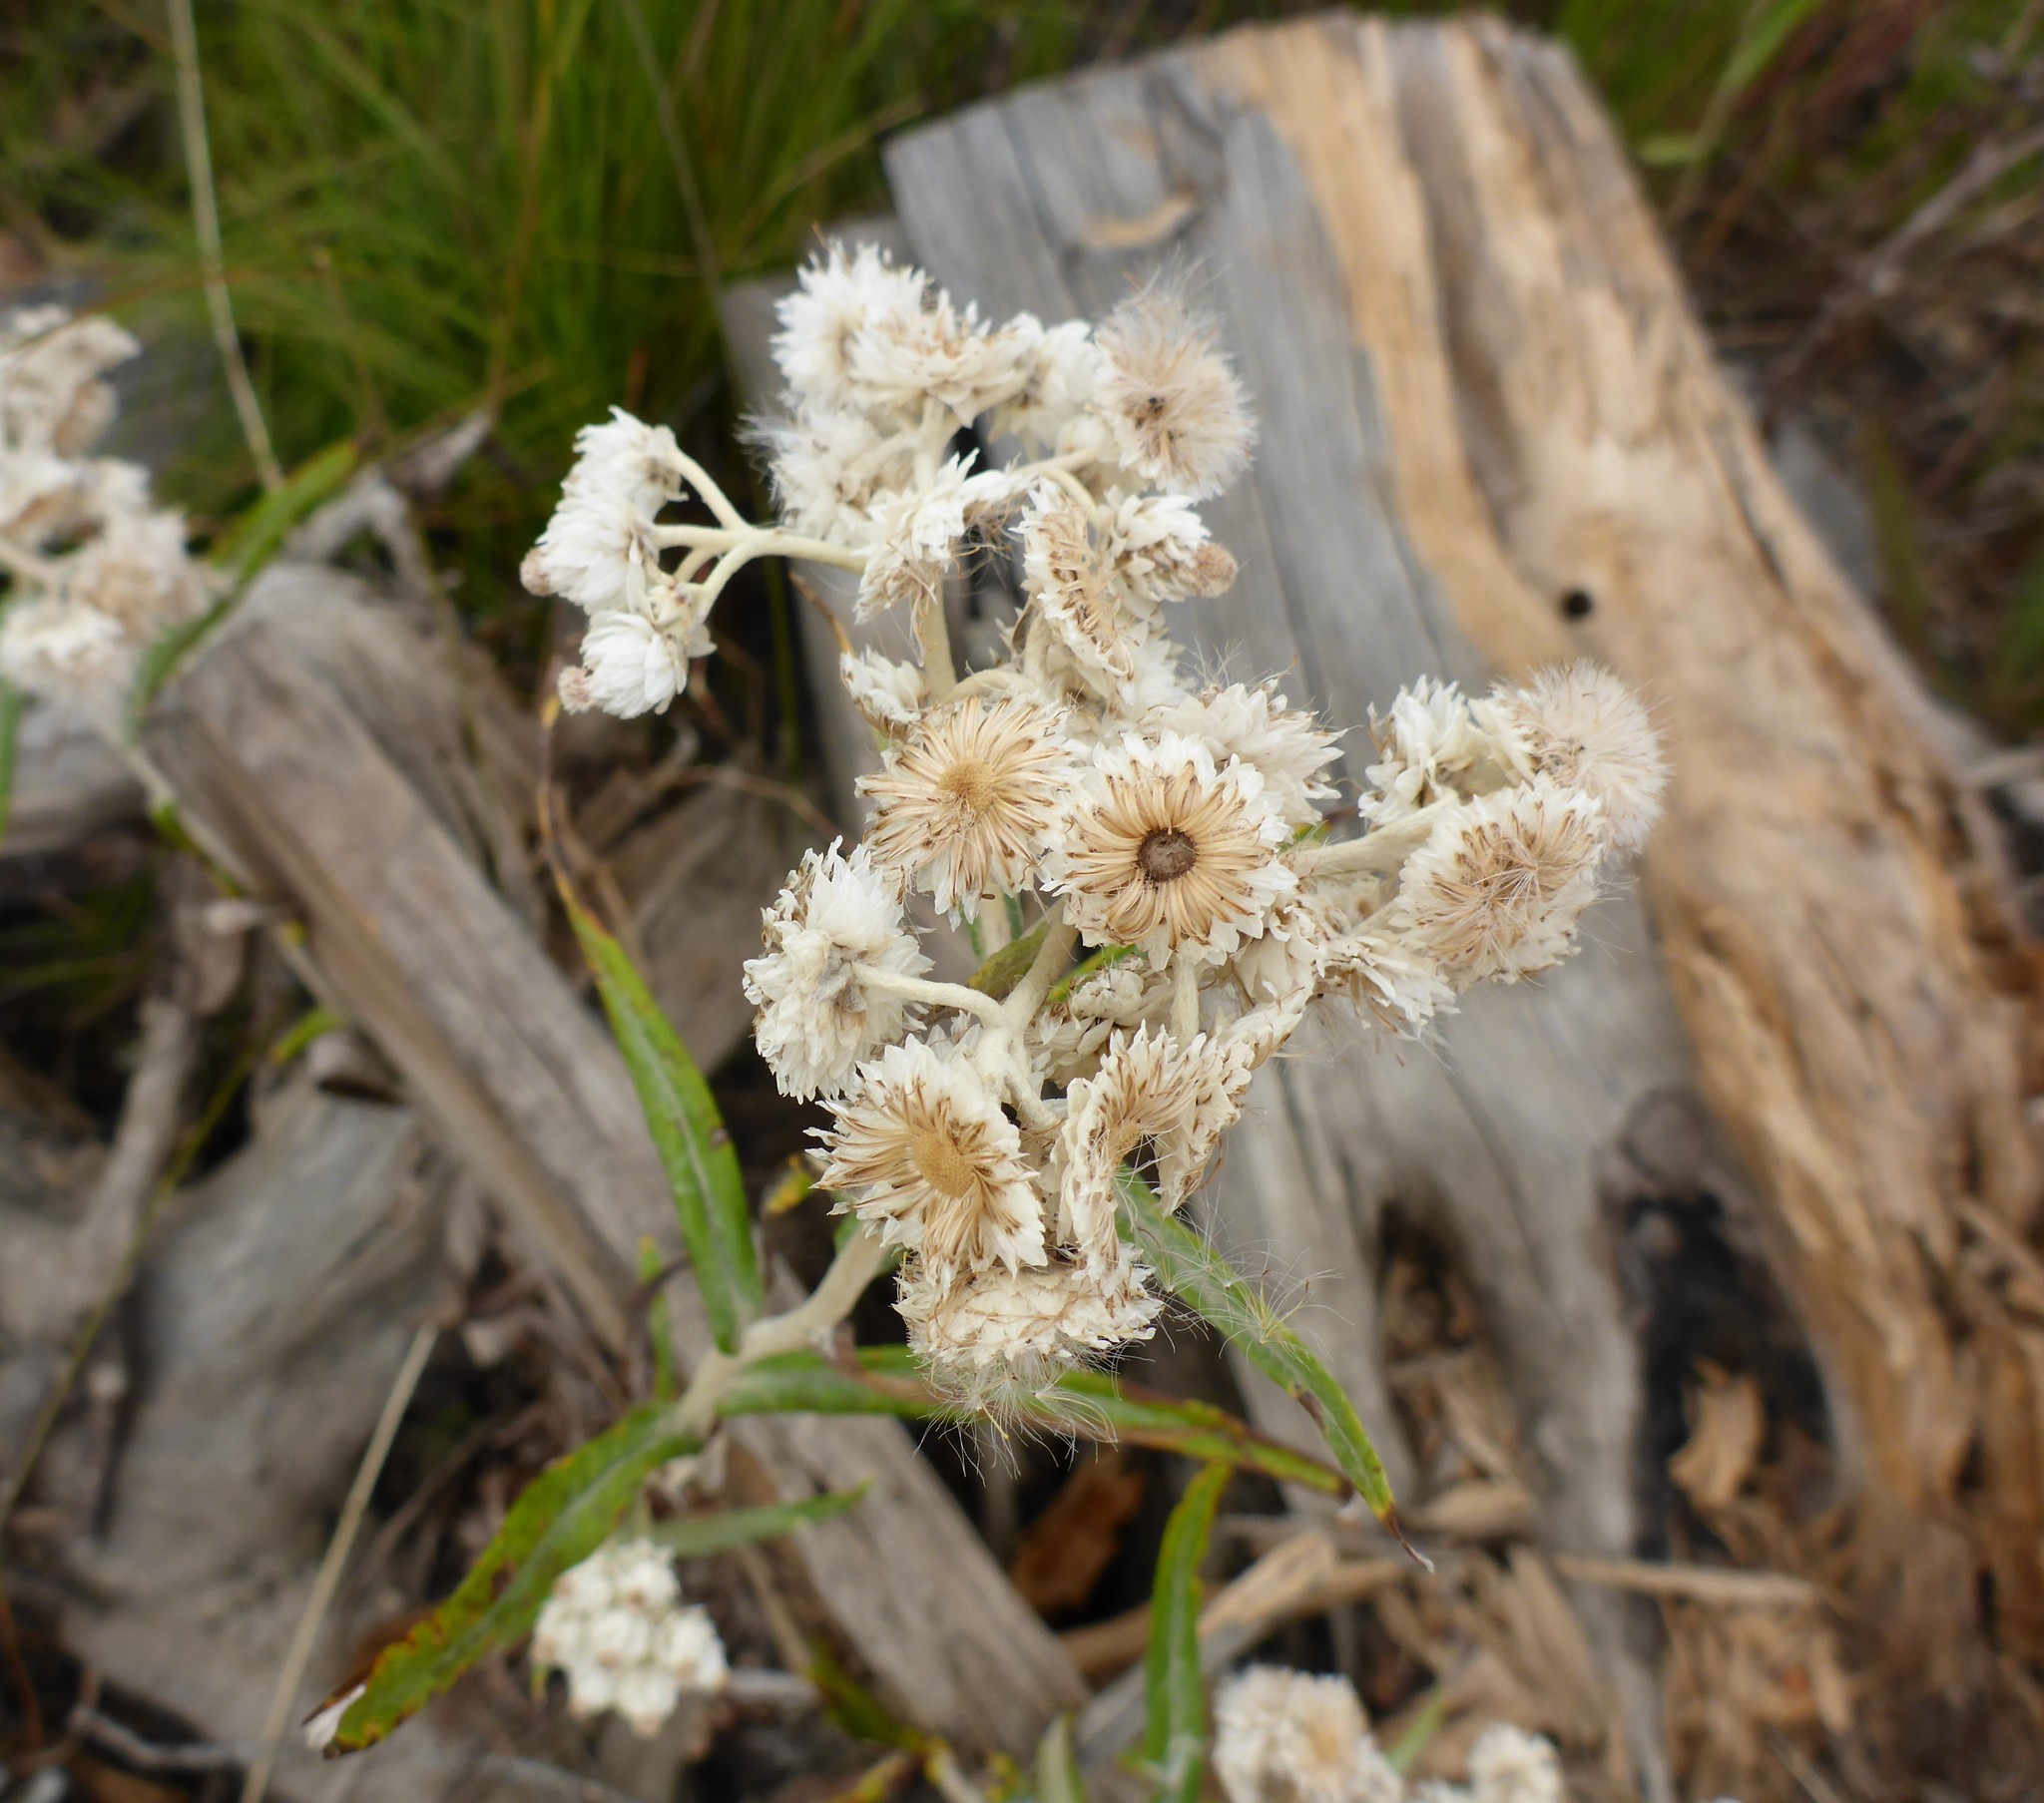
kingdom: Plantae
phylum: Tracheophyta
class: Magnoliopsida
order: Asterales
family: Asteraceae
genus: Anaphalis
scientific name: Anaphalis margaritacea
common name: Pearly everlasting
